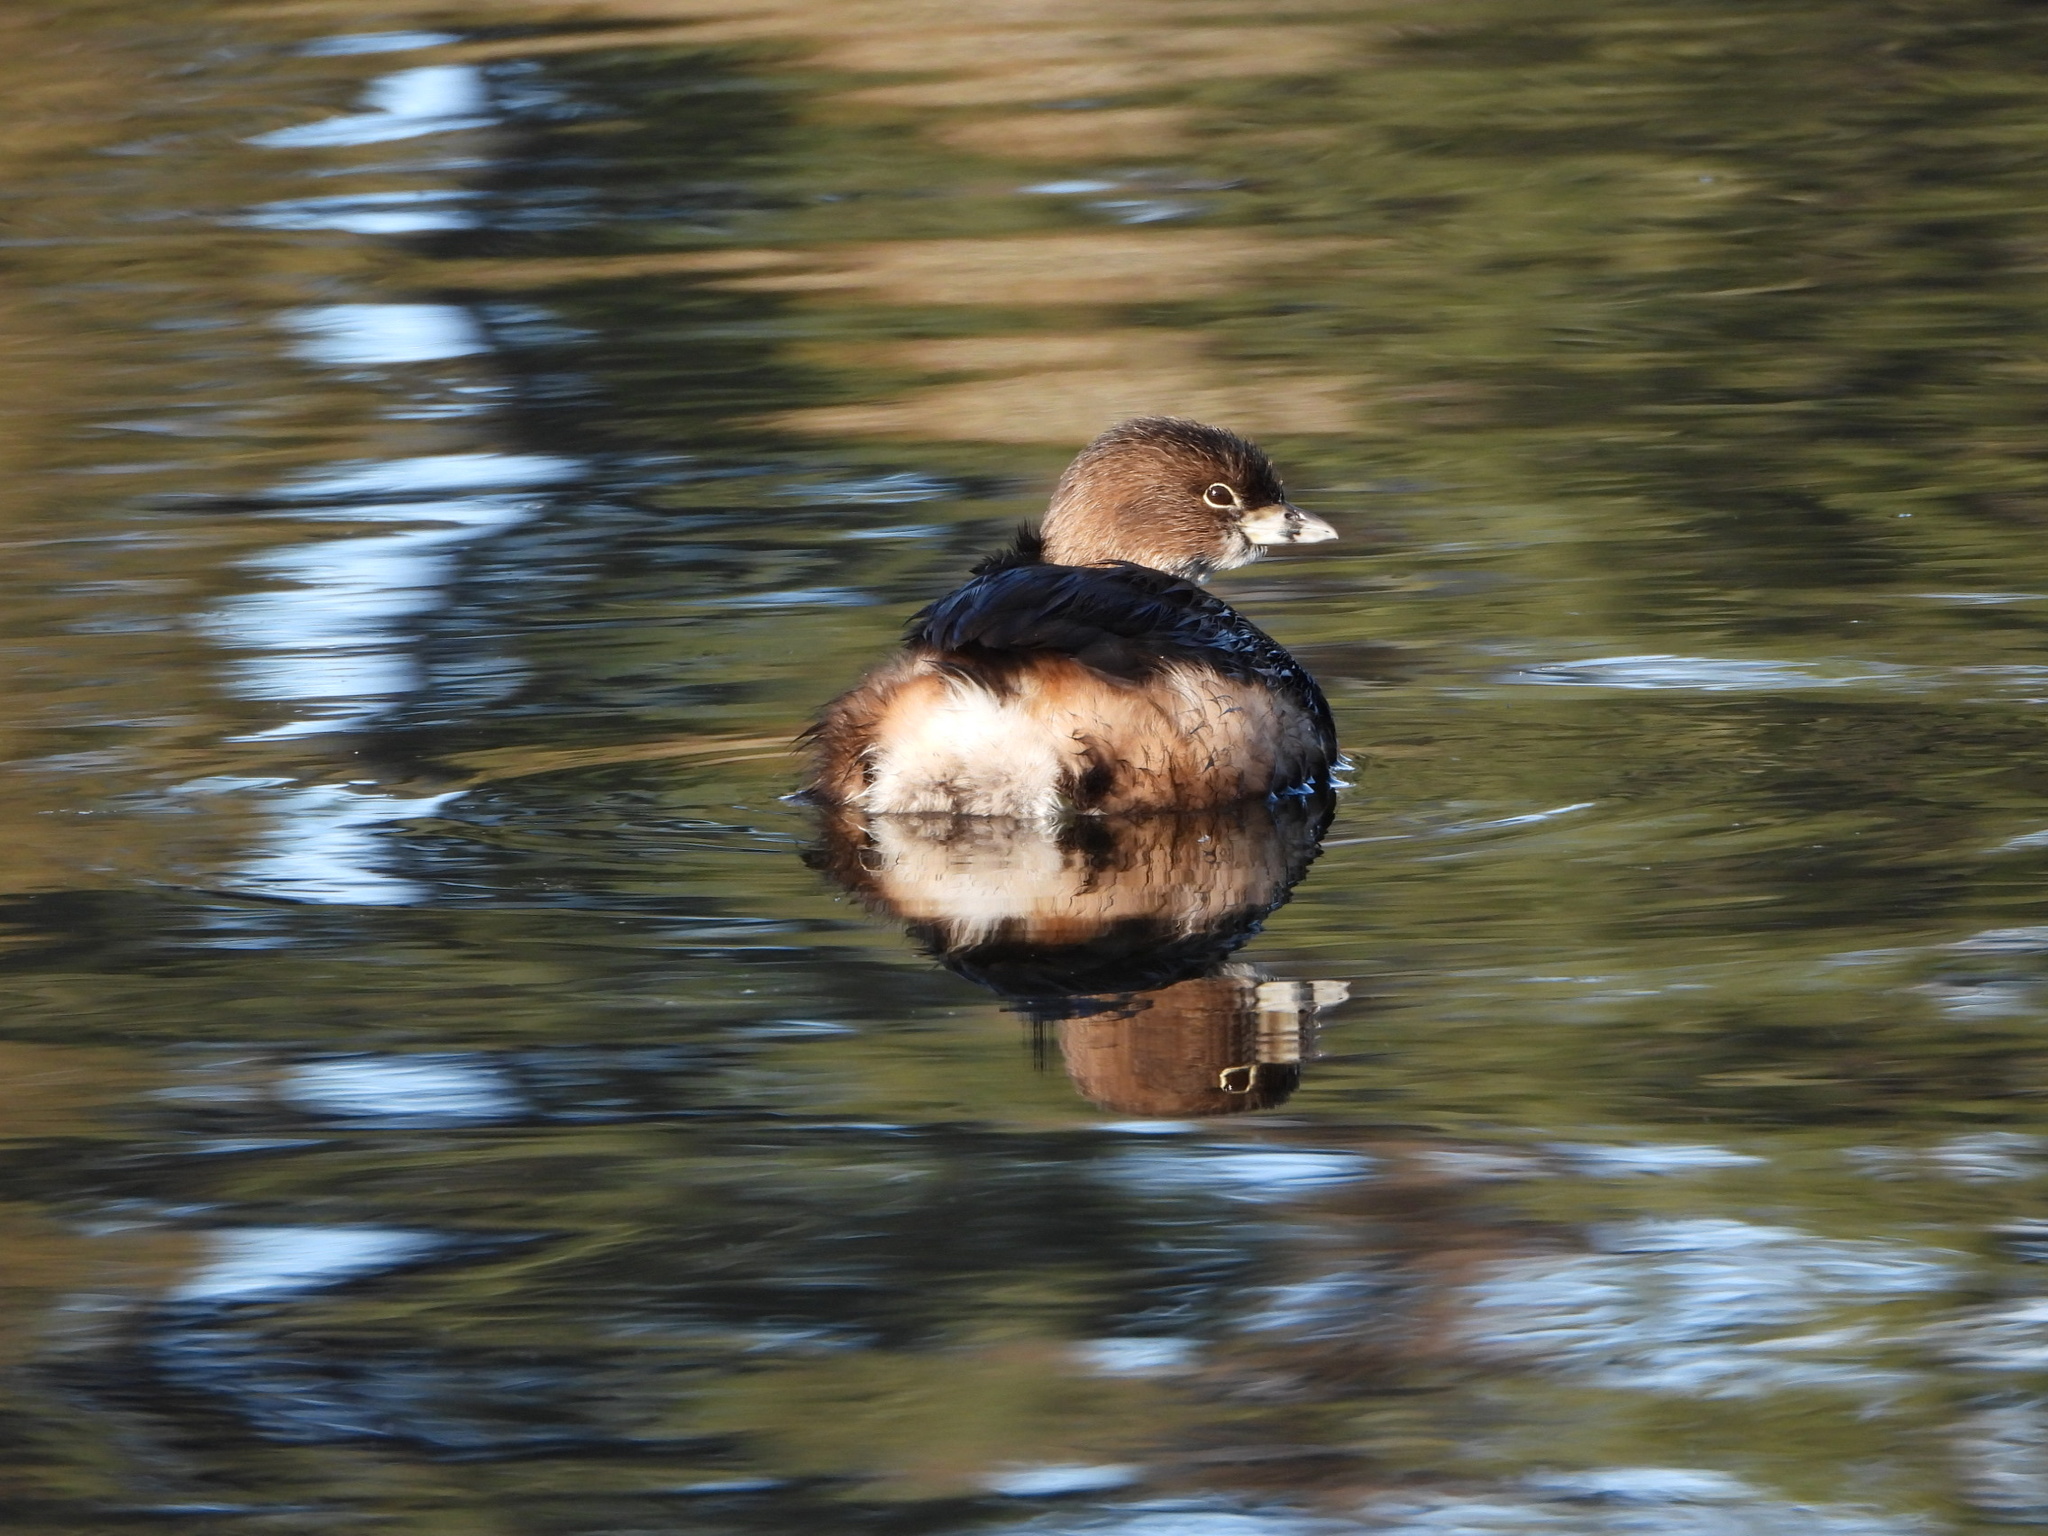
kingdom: Animalia
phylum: Chordata
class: Aves
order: Podicipediformes
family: Podicipedidae
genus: Podilymbus
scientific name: Podilymbus podiceps
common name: Pied-billed grebe
